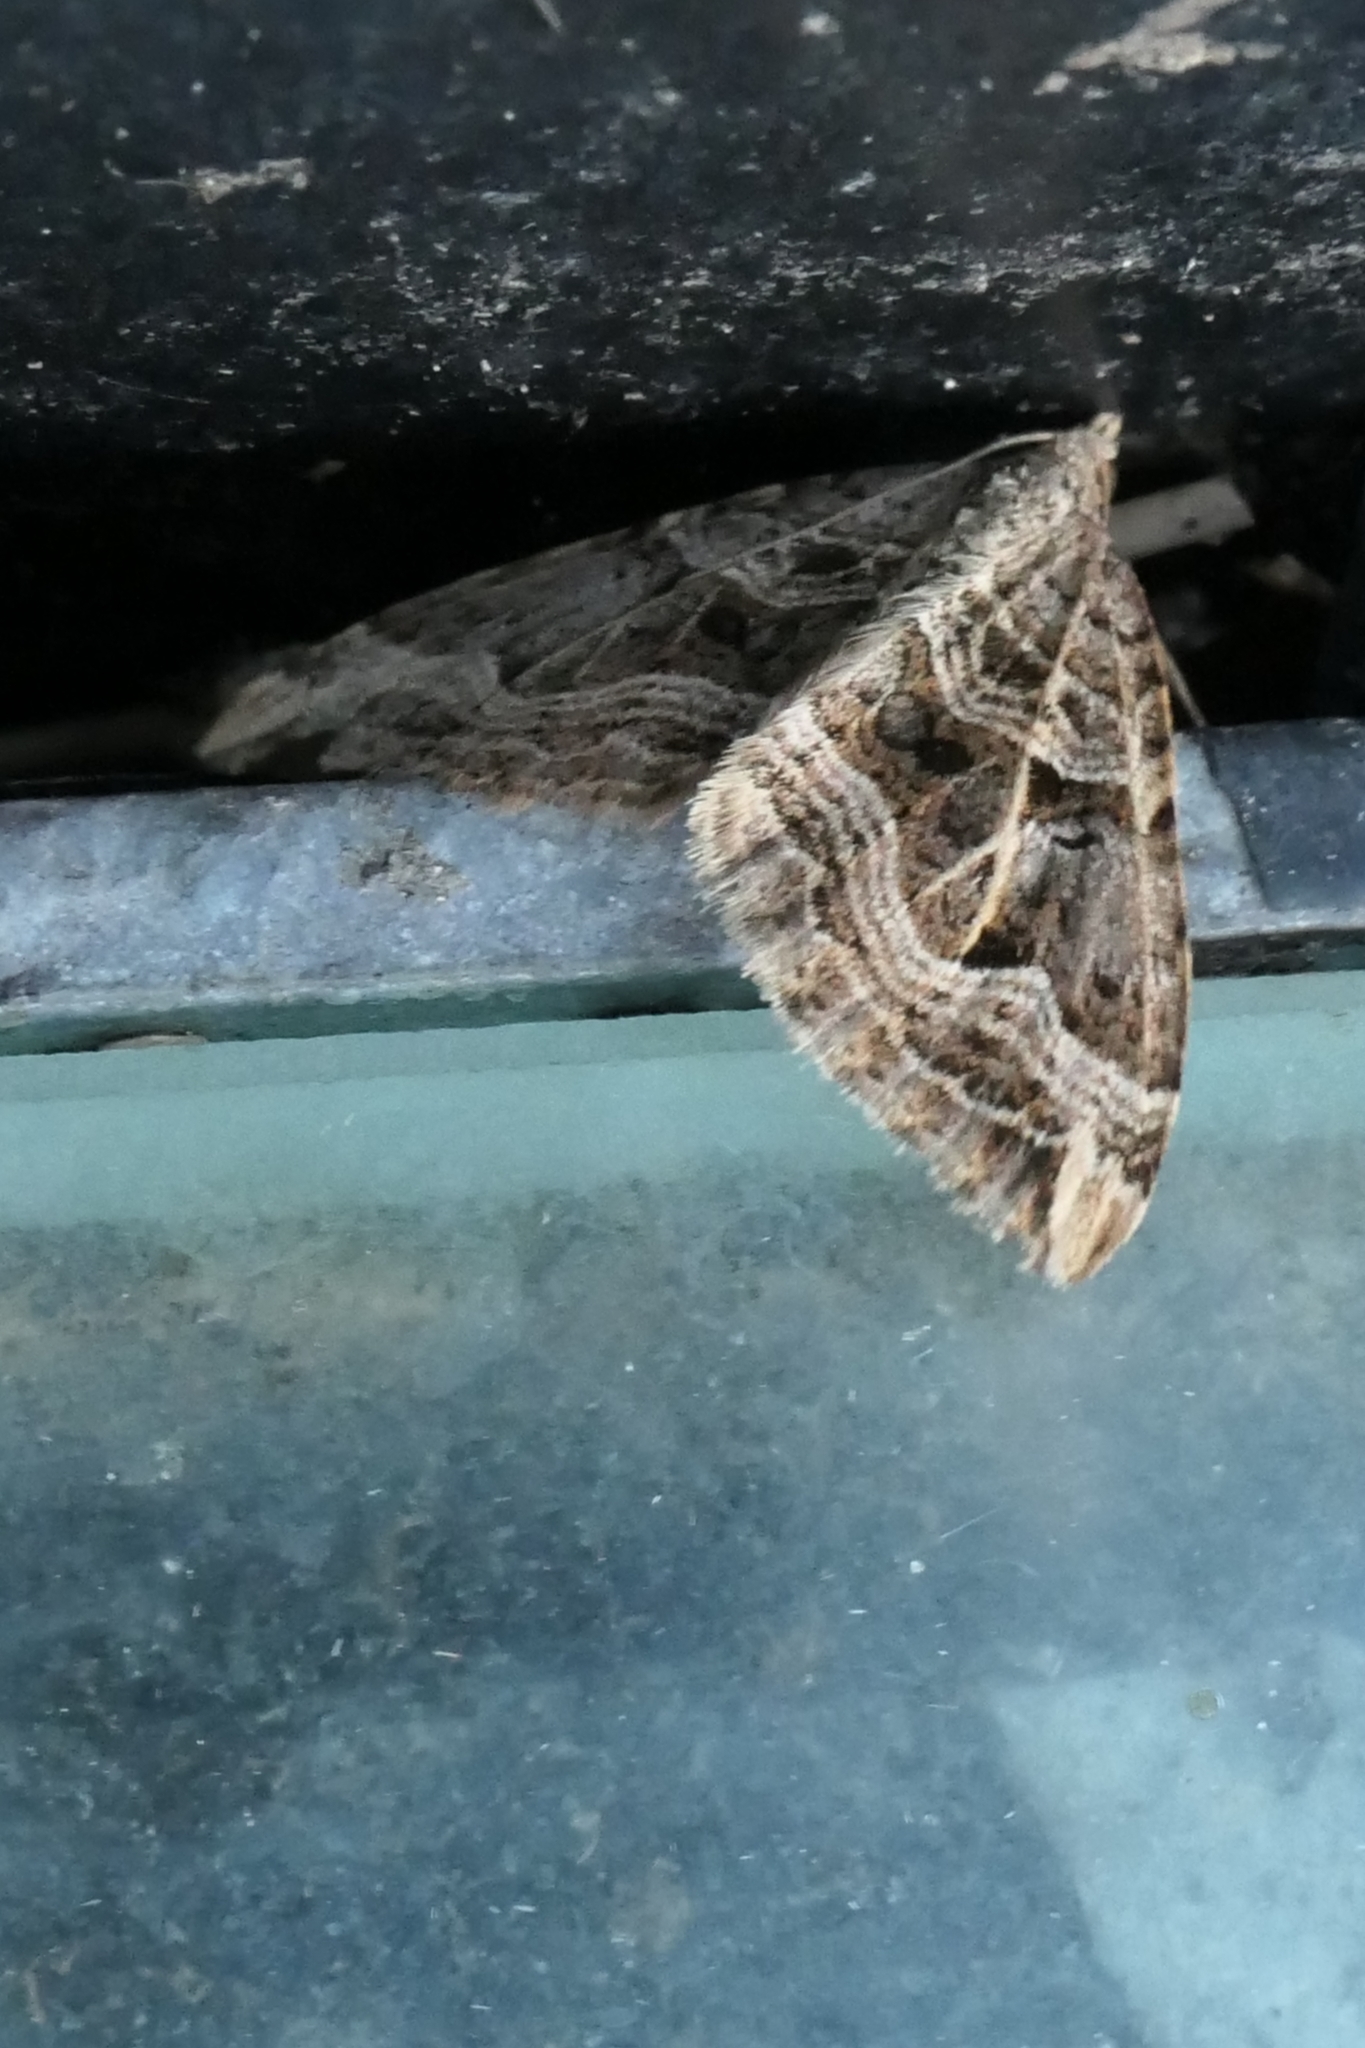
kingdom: Animalia
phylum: Arthropoda
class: Insecta
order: Lepidoptera
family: Geometridae
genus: Xanthorhoe
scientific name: Xanthorhoe semifissata
